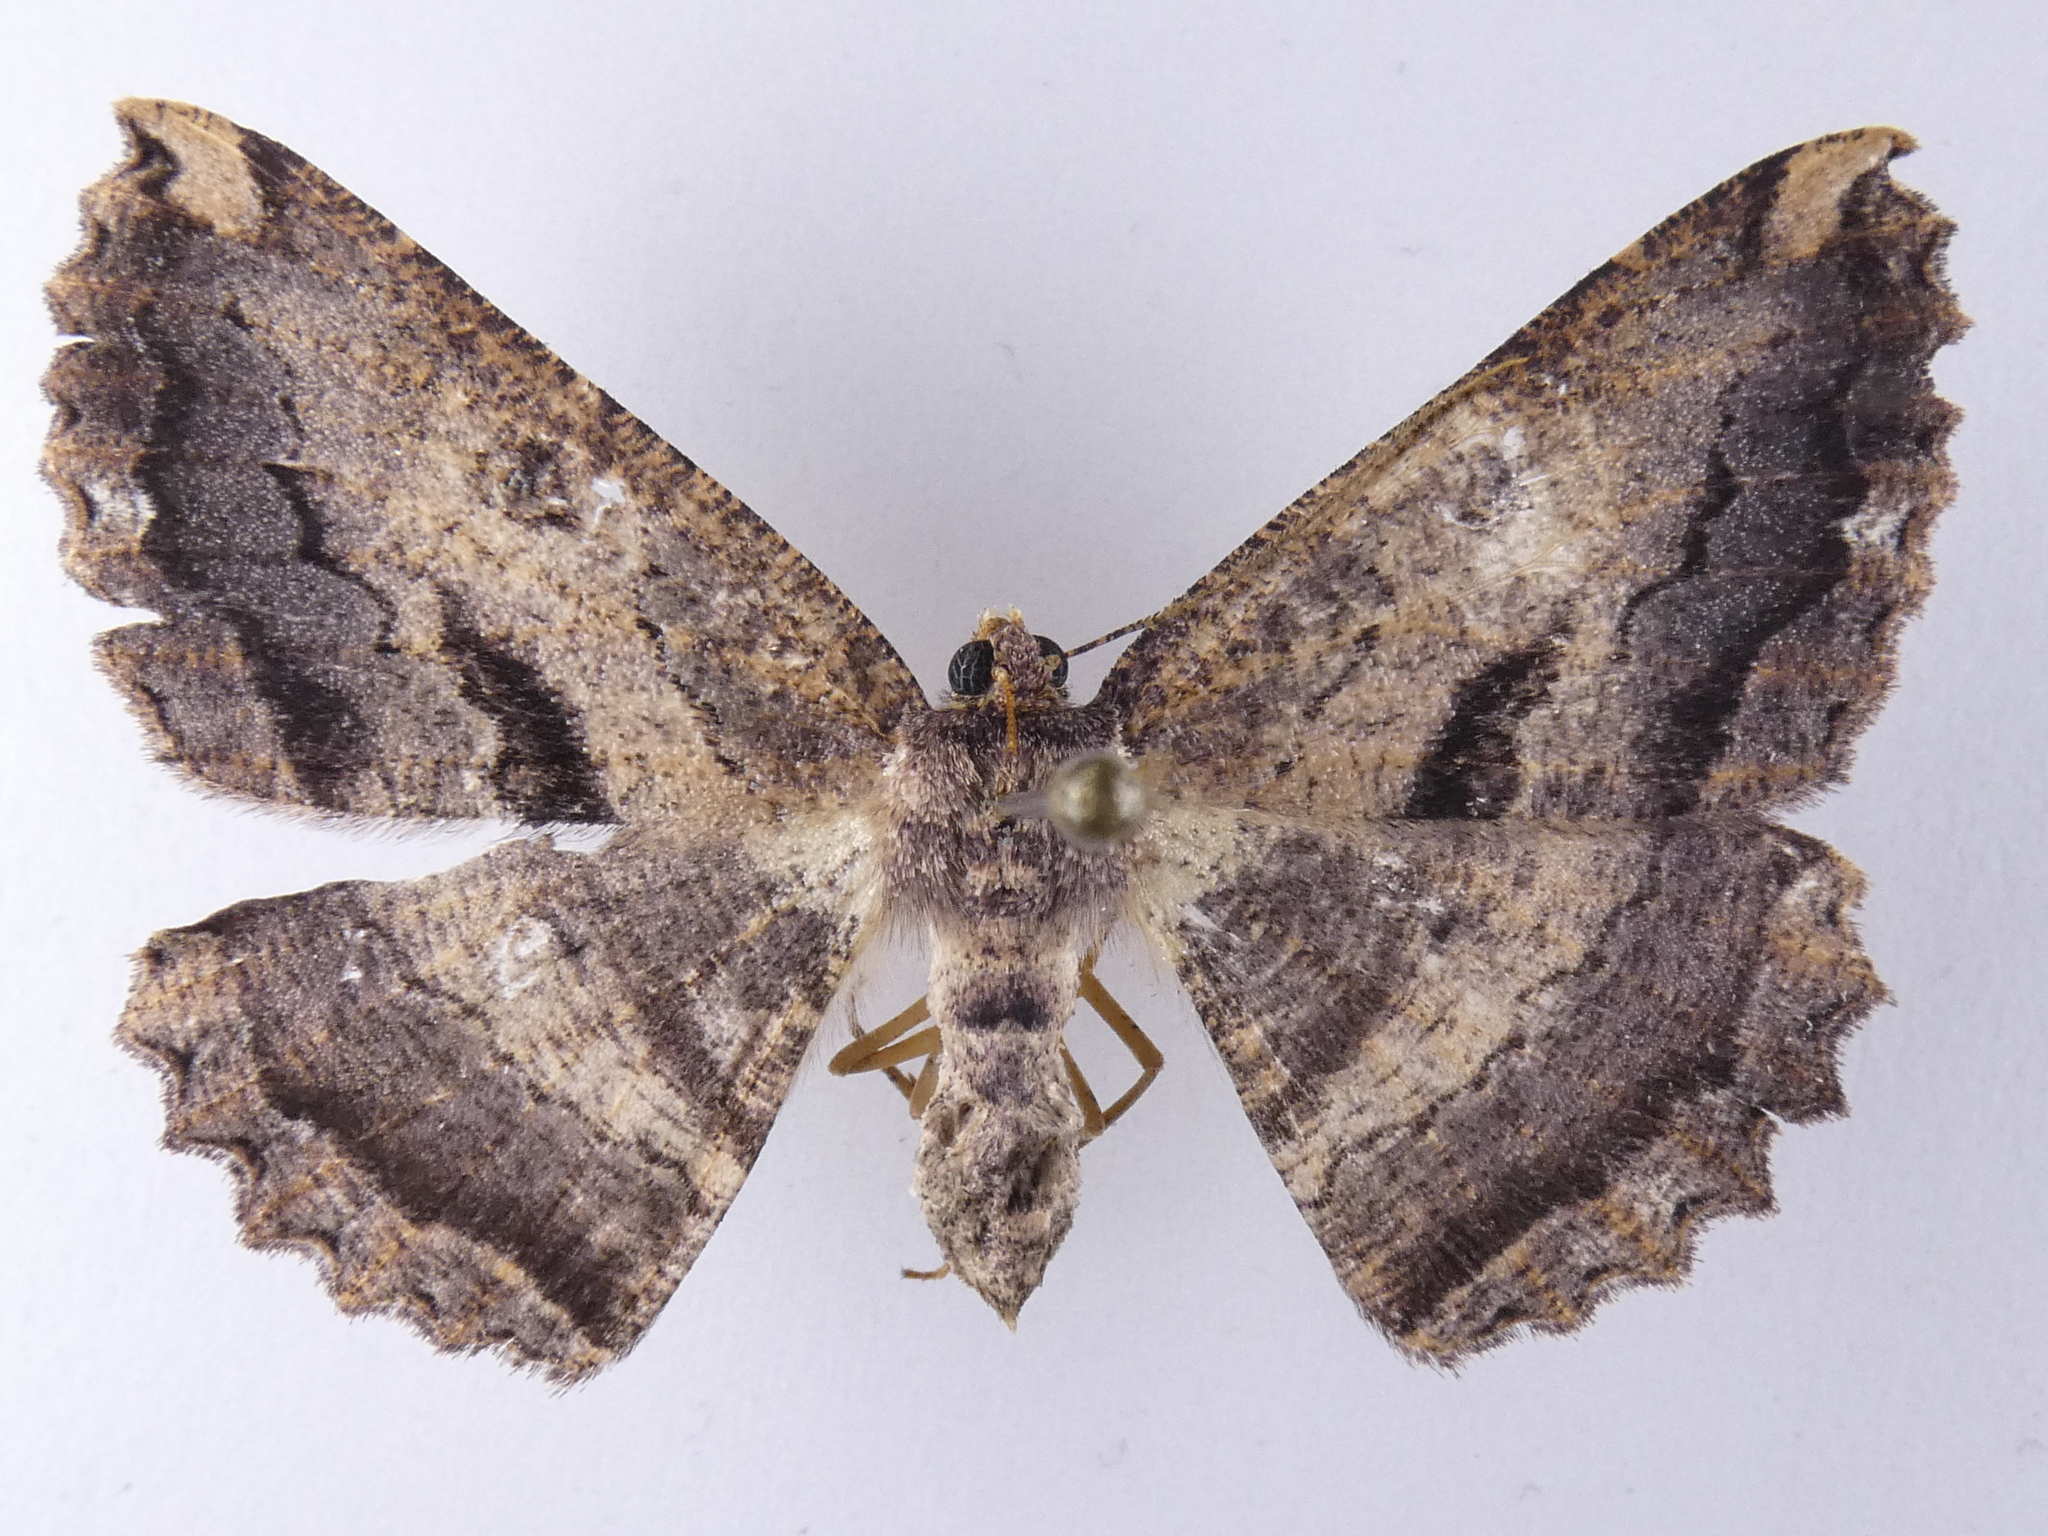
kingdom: Animalia
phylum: Arthropoda
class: Insecta
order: Lepidoptera
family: Geometridae
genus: Gellonia
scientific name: Gellonia dejectaria
